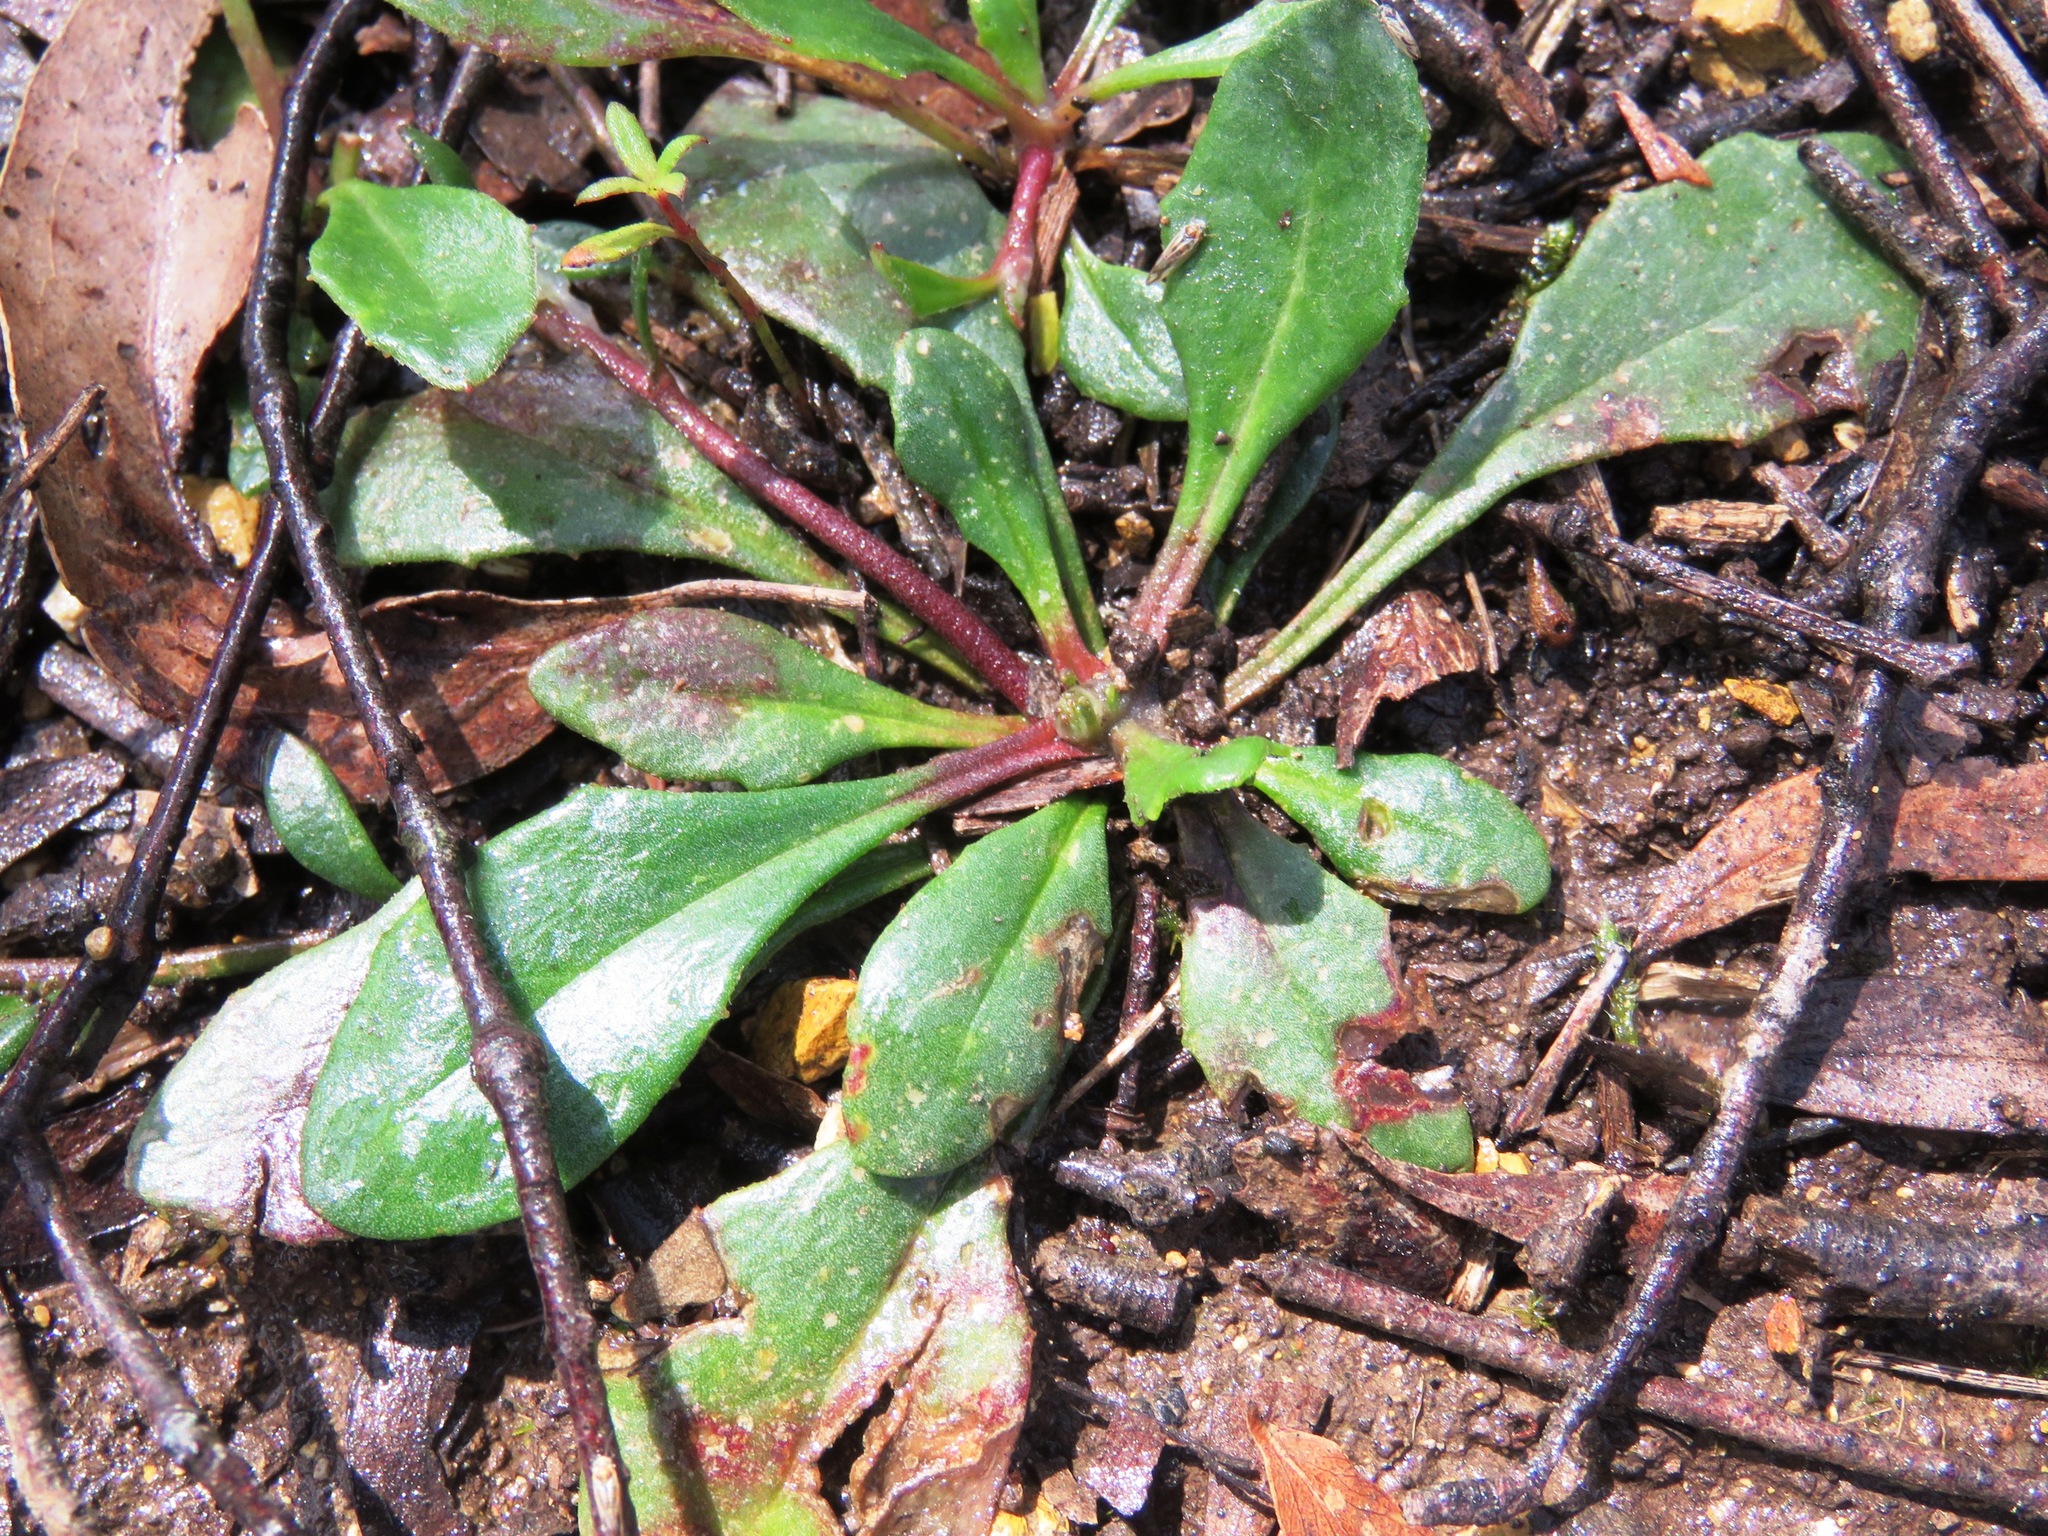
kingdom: Plantae
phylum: Tracheophyta
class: Magnoliopsida
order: Asterales
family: Goodeniaceae
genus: Goodenia
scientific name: Goodenia lanata
